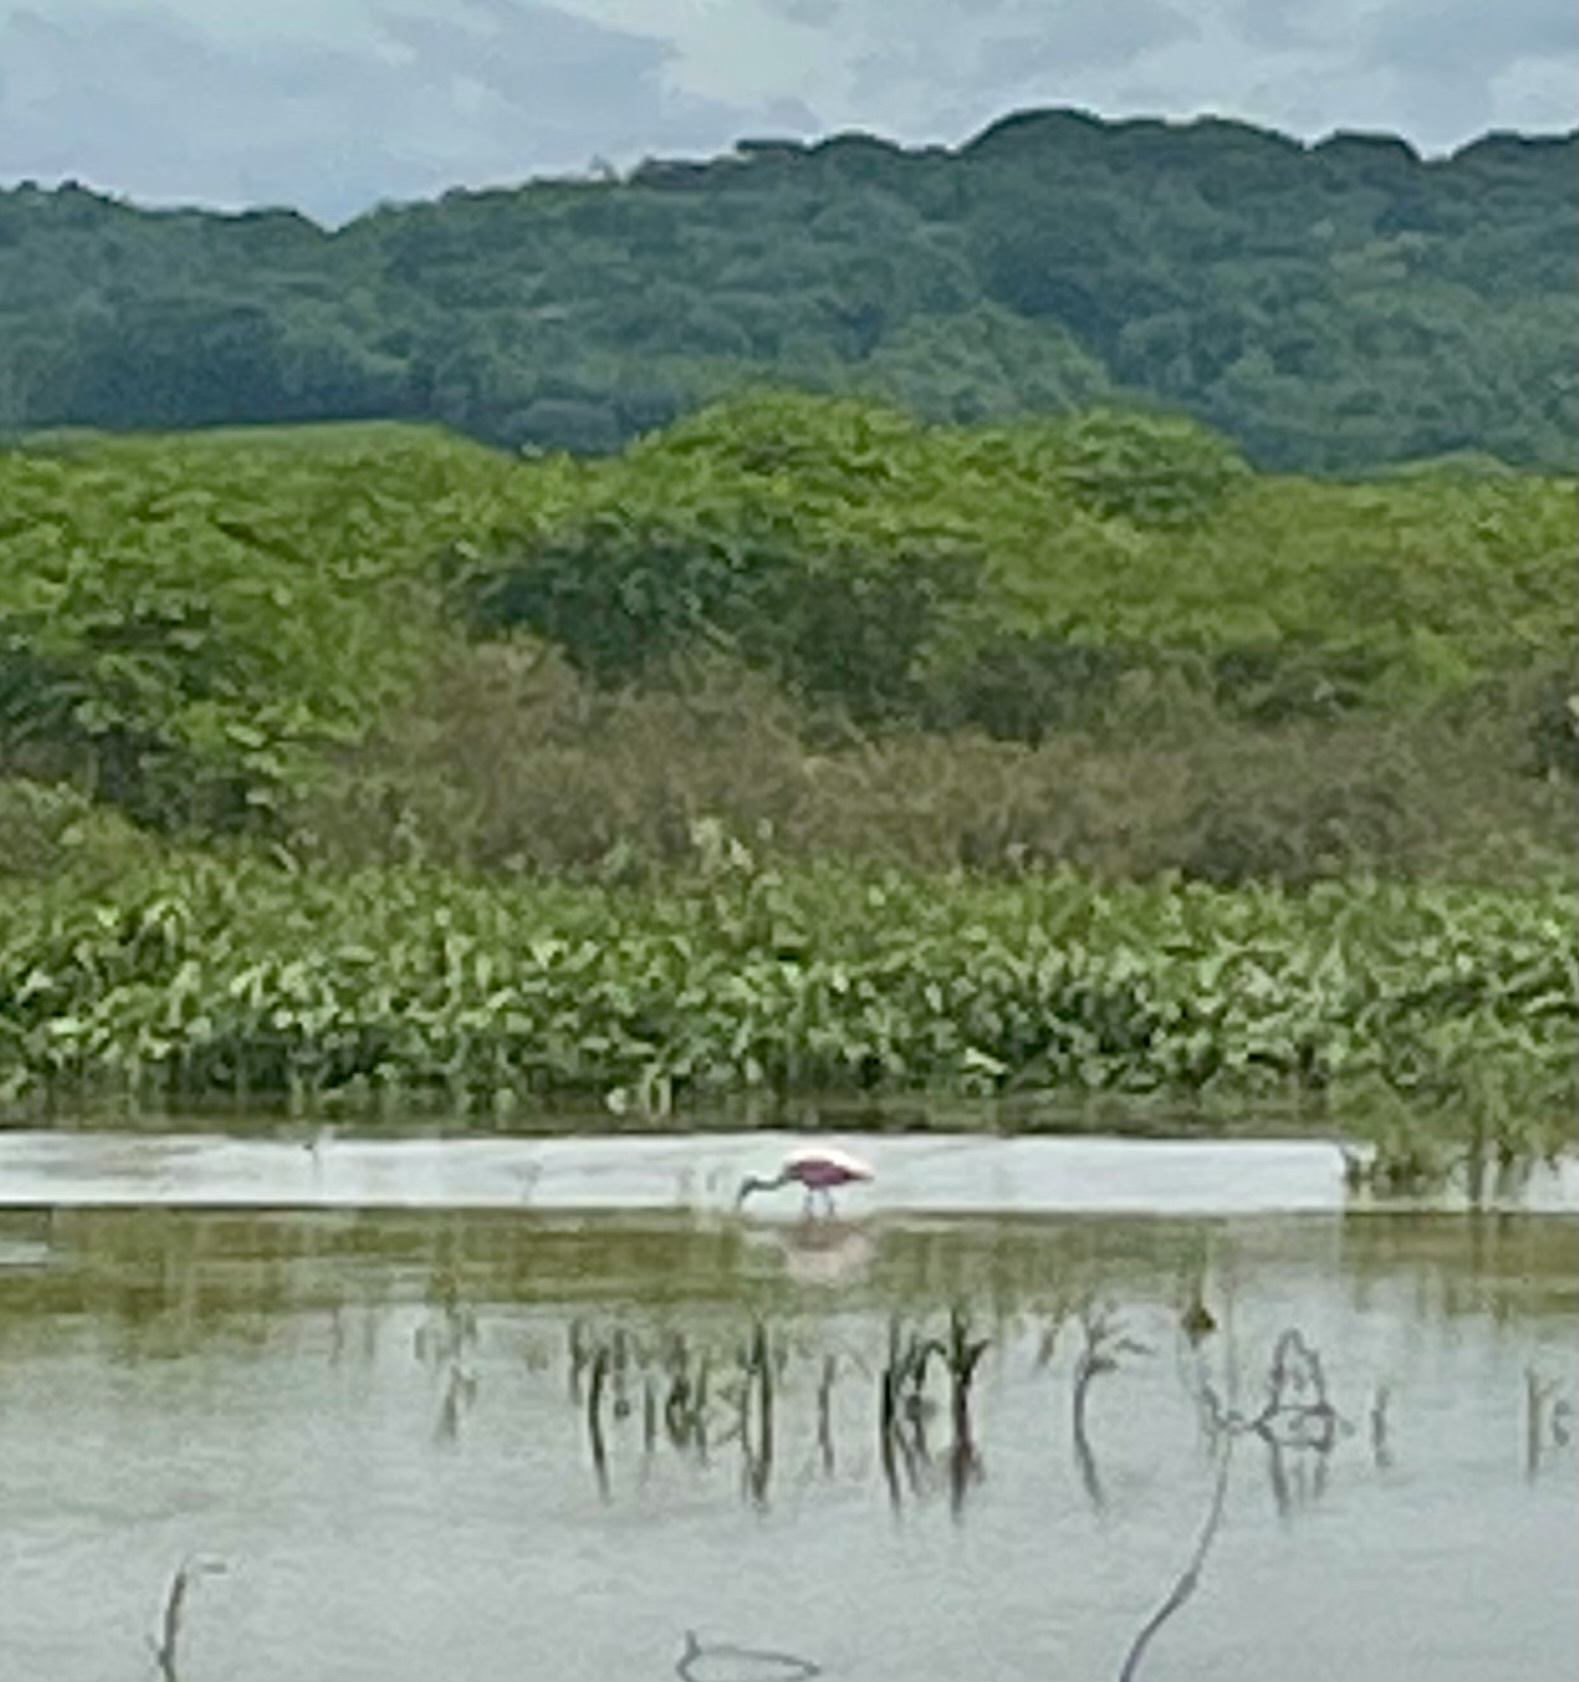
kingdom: Animalia
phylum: Chordata
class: Aves
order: Pelecaniformes
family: Threskiornithidae
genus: Platalea
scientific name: Platalea ajaja
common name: Roseate spoonbill
